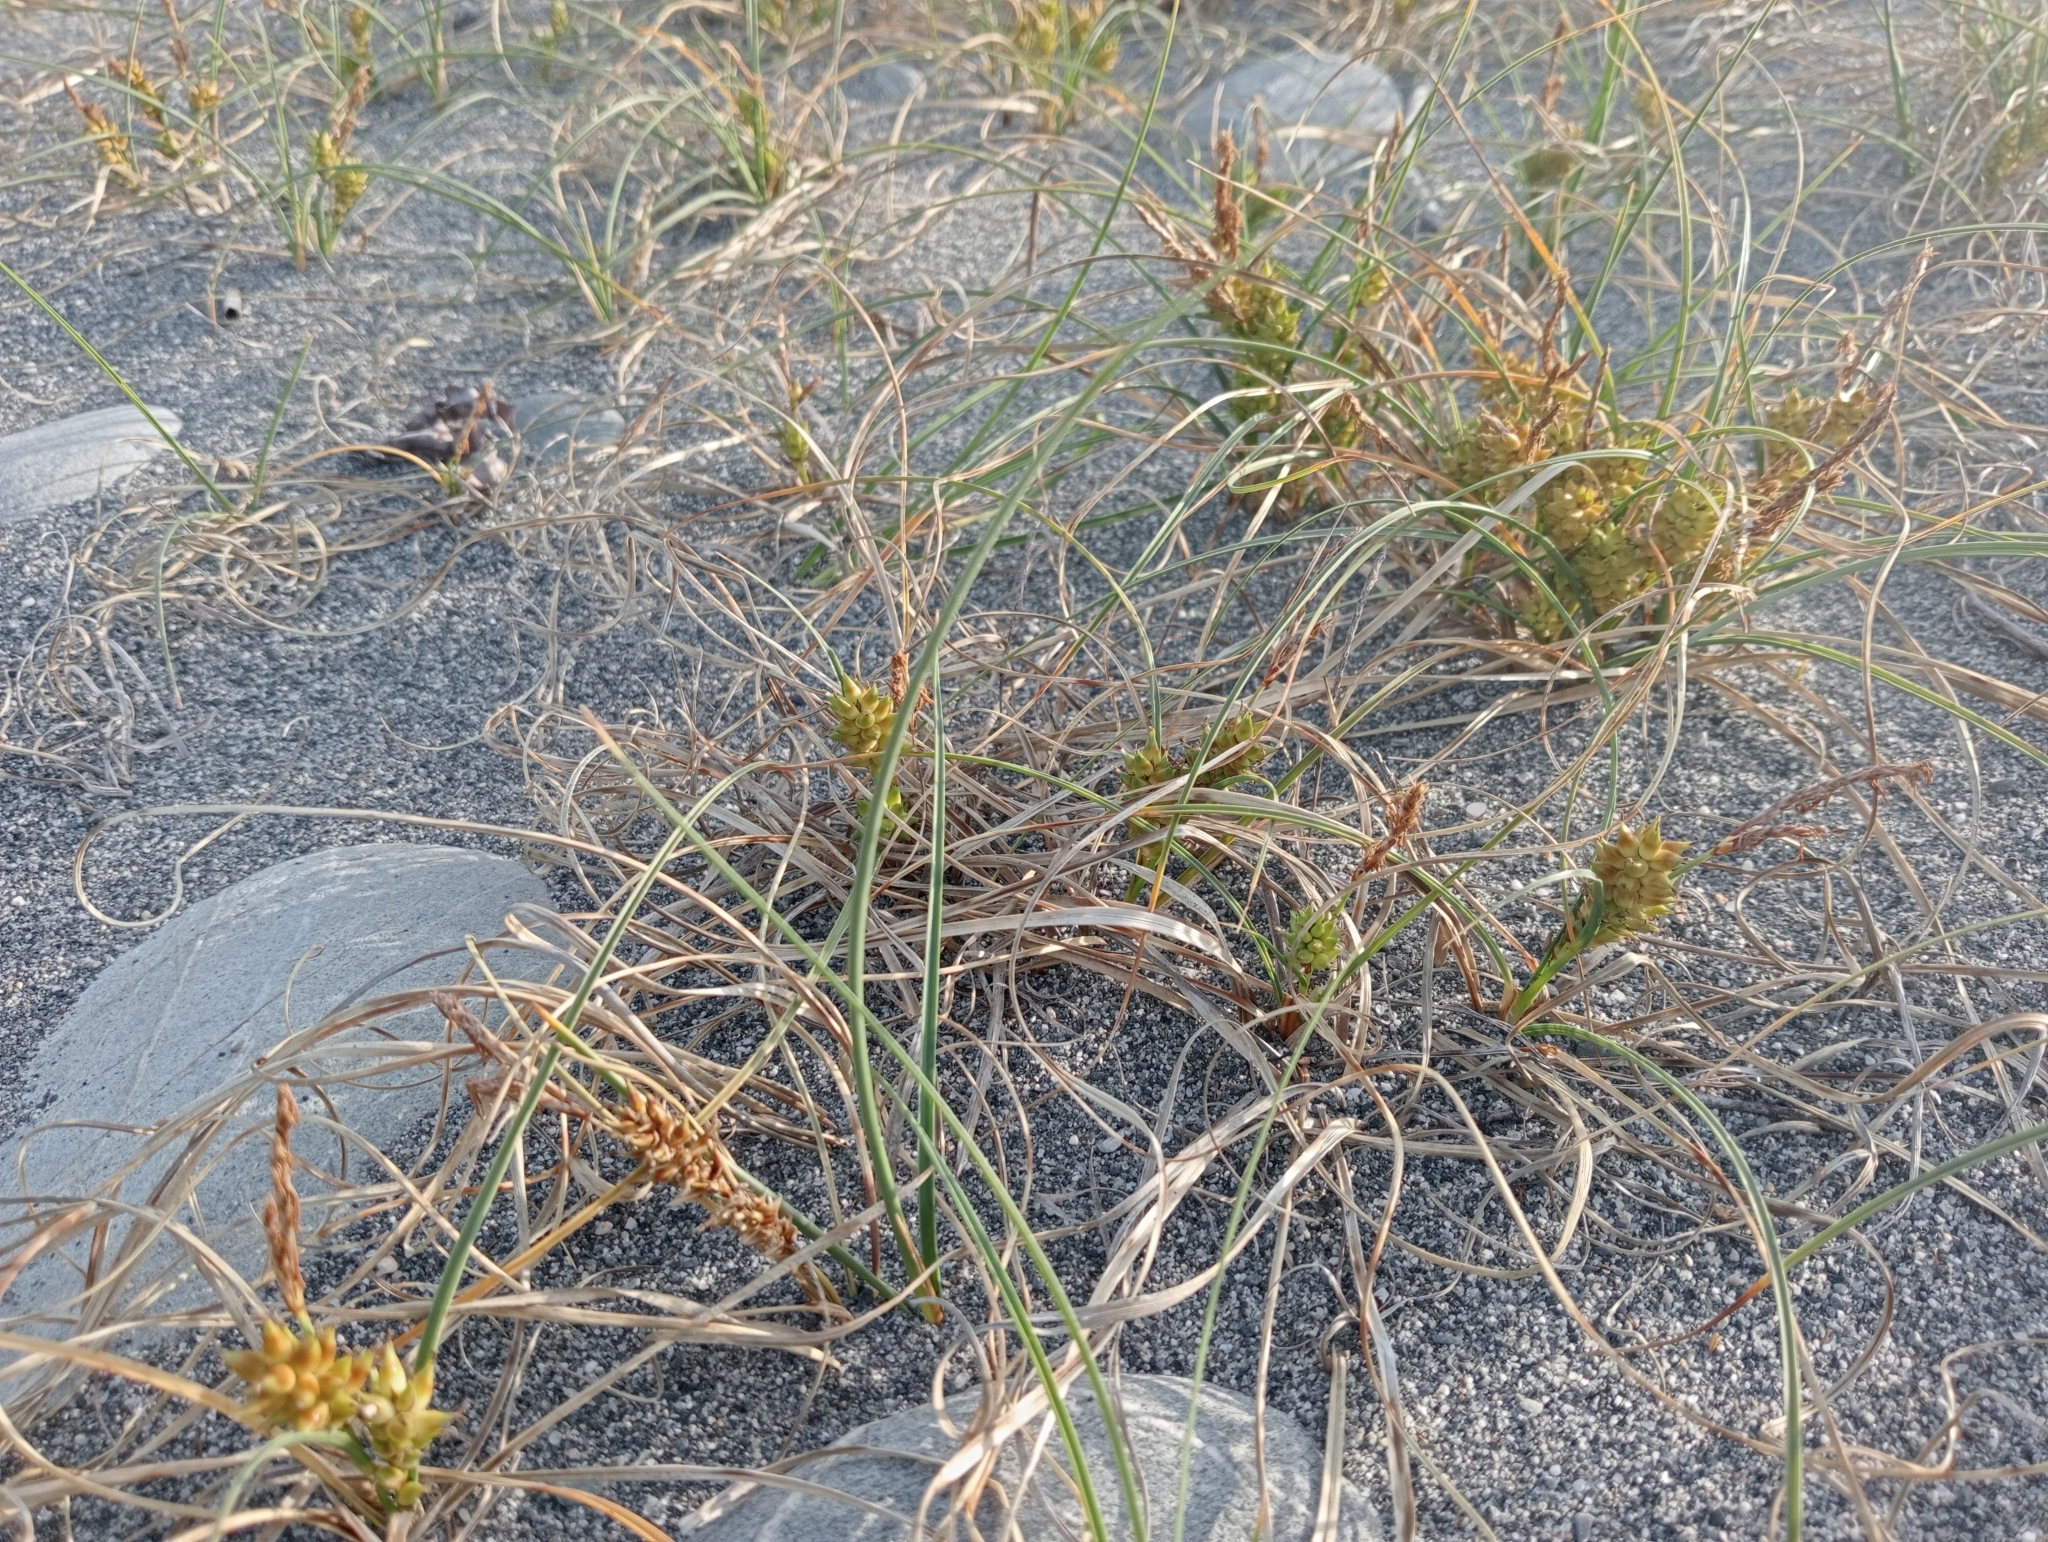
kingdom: Plantae
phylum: Tracheophyta
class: Liliopsida
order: Poales
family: Cyperaceae
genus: Carex
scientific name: Carex pumila
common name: Dwarf sedge
